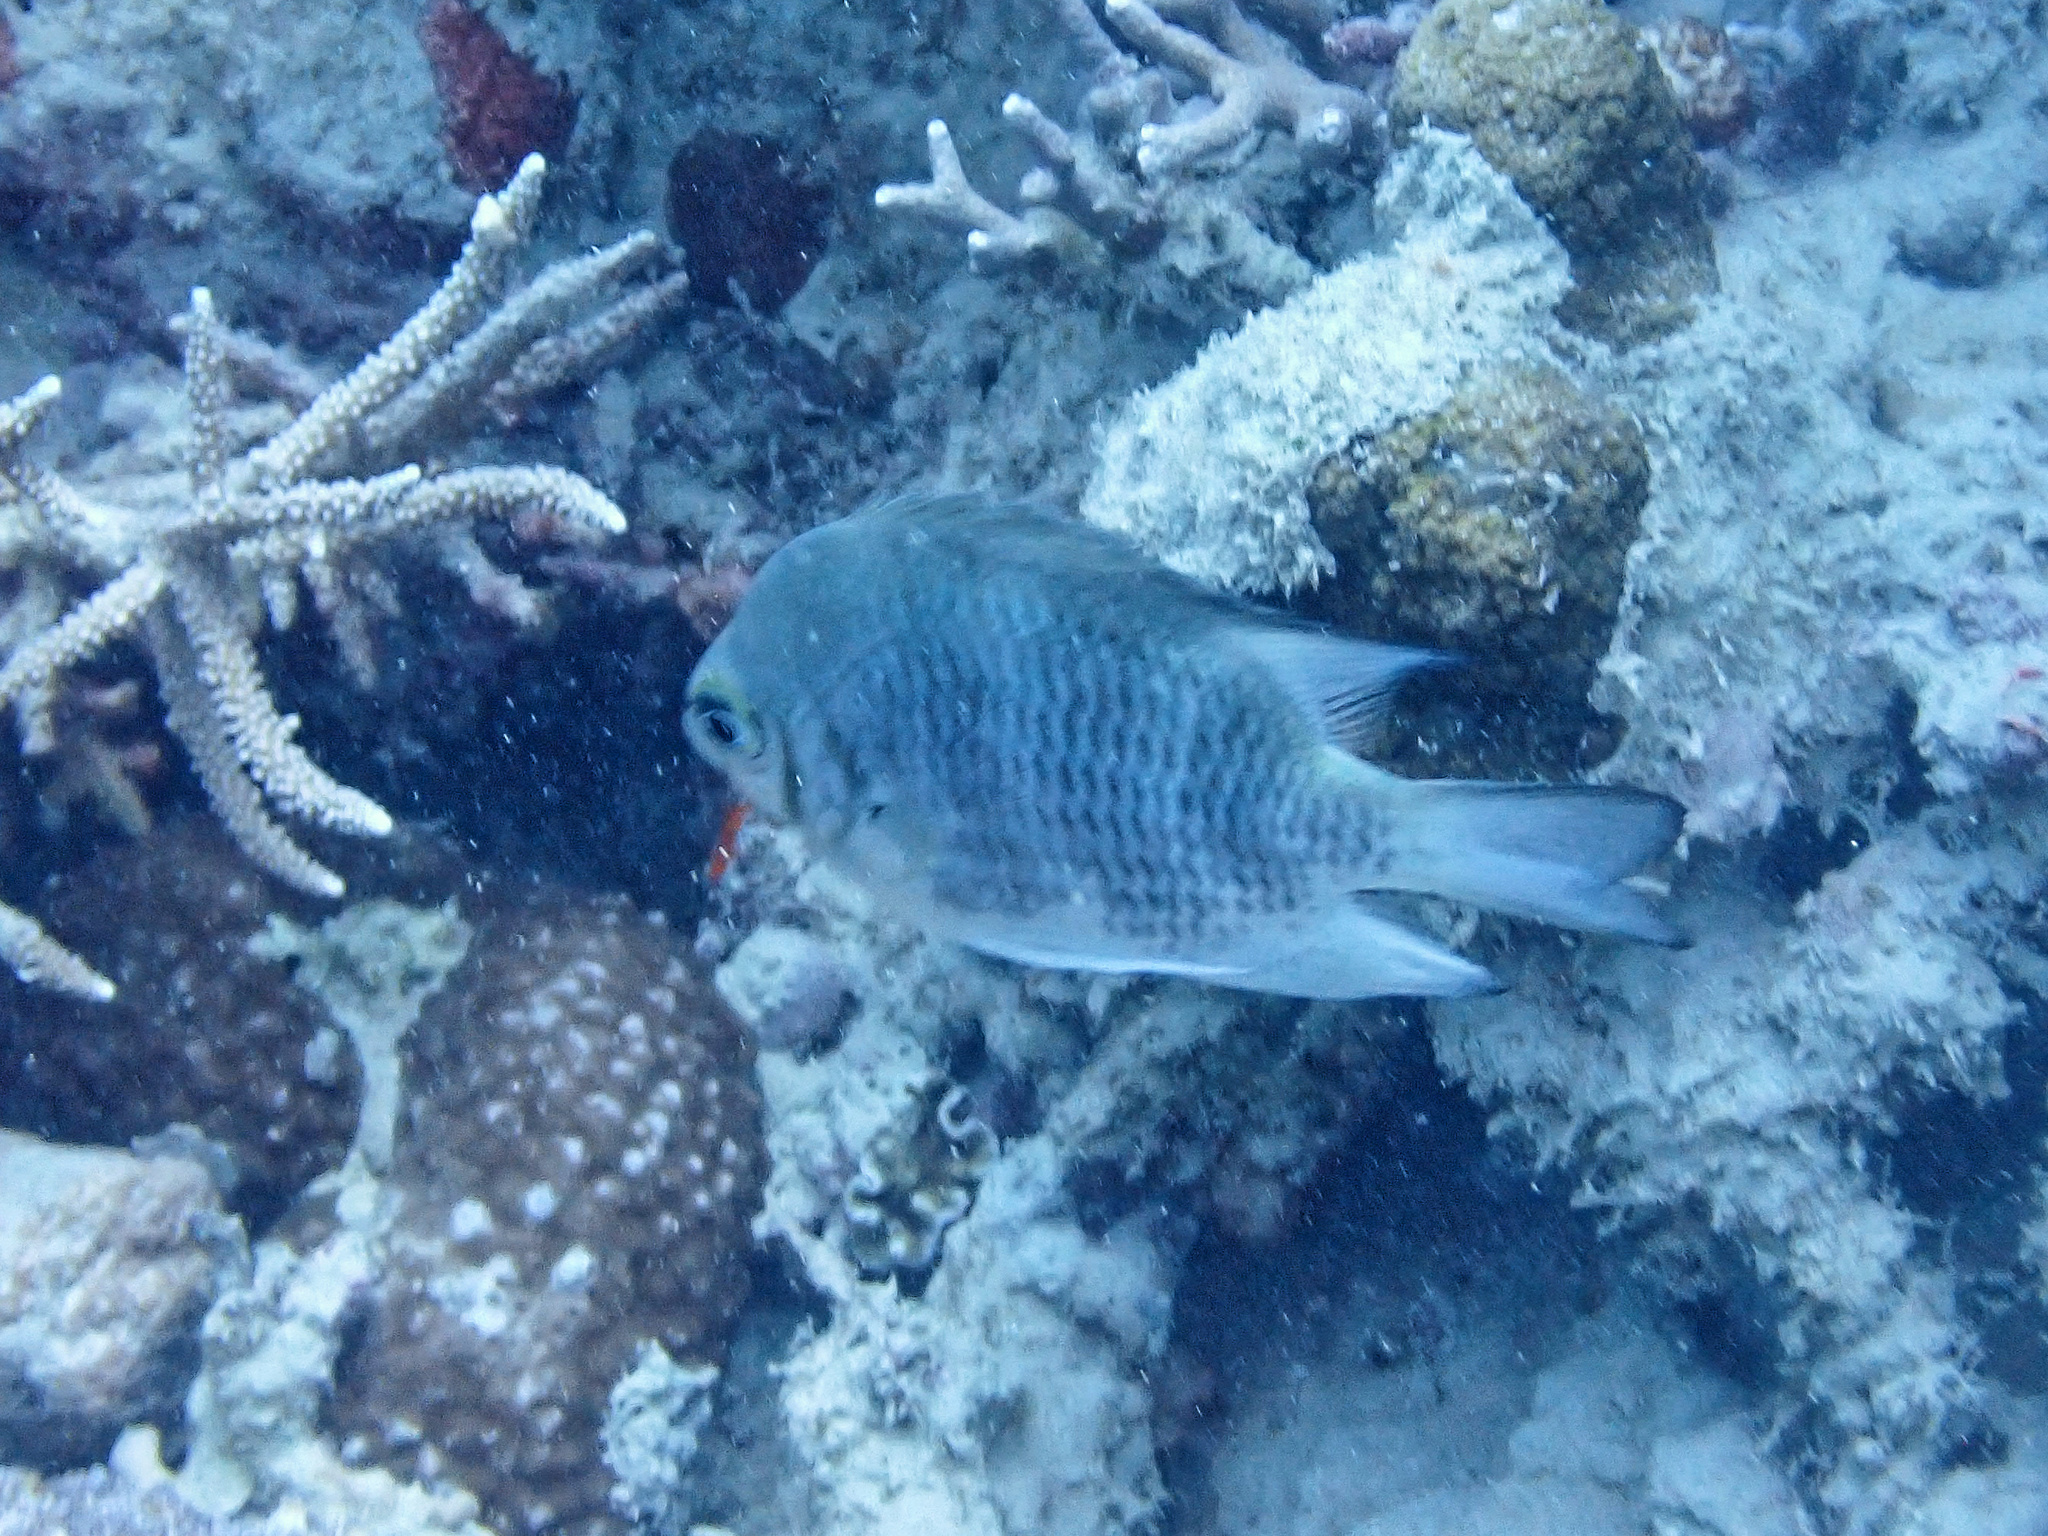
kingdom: Animalia
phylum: Chordata
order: Perciformes
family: Pomacentridae
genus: Amblyglyphidodon
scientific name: Amblyglyphidodon curacao
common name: Staghorn damsel
